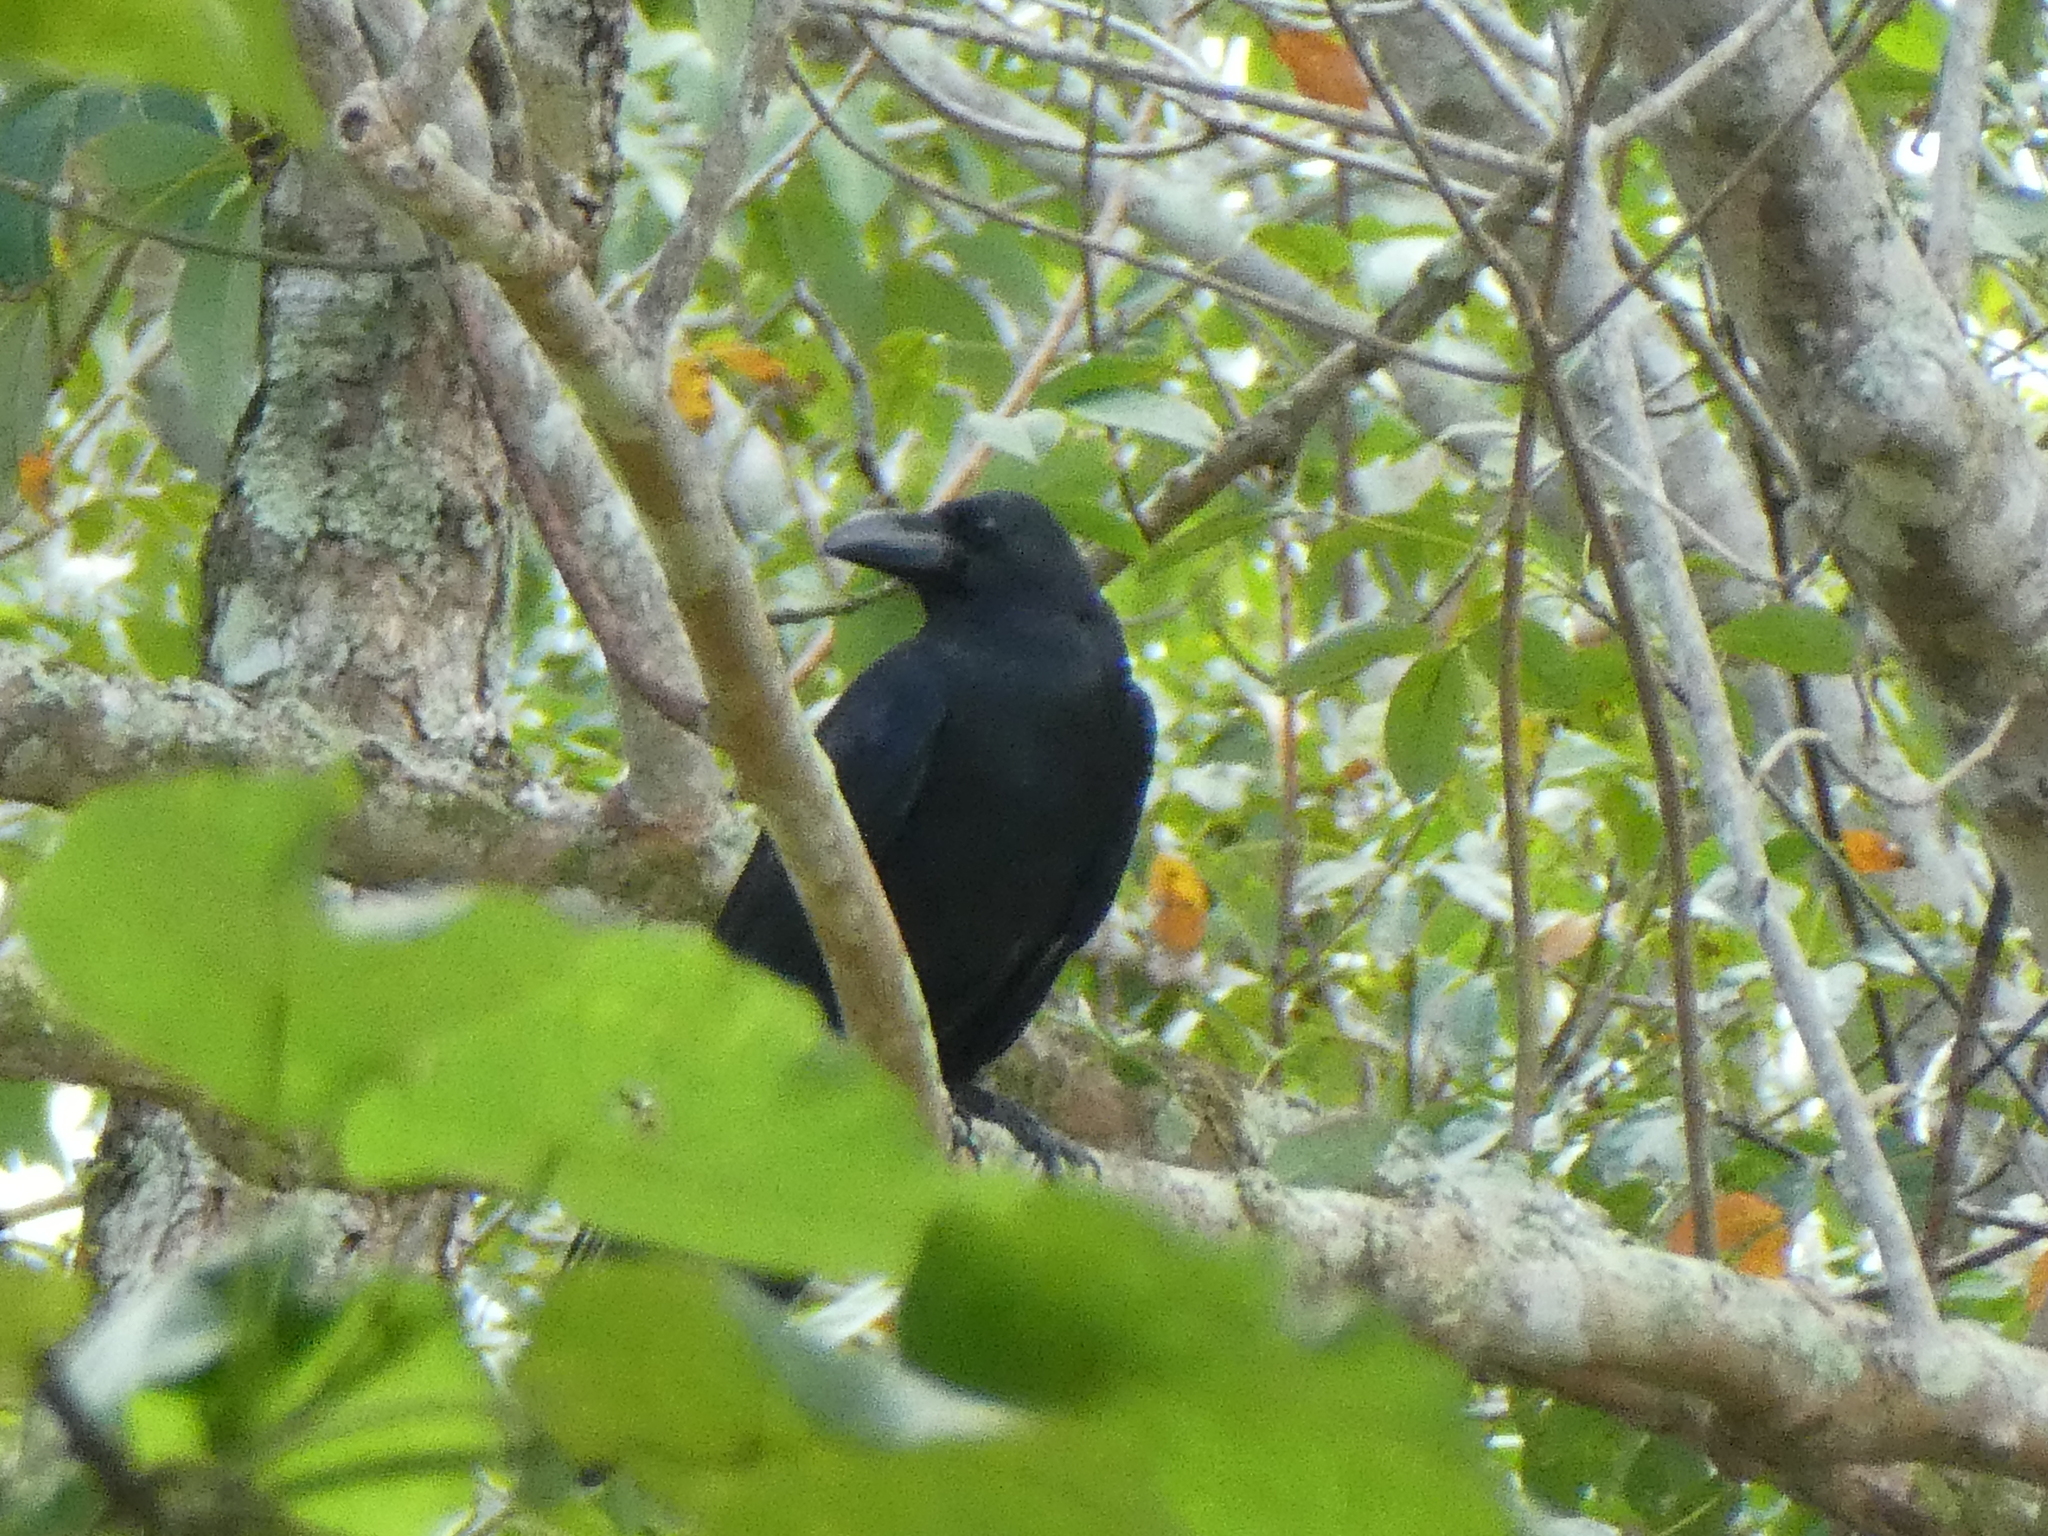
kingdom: Animalia
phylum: Chordata
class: Aves
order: Passeriformes
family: Corvidae
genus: Corvus
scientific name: Corvus macrorhynchos
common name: Large-billed crow
